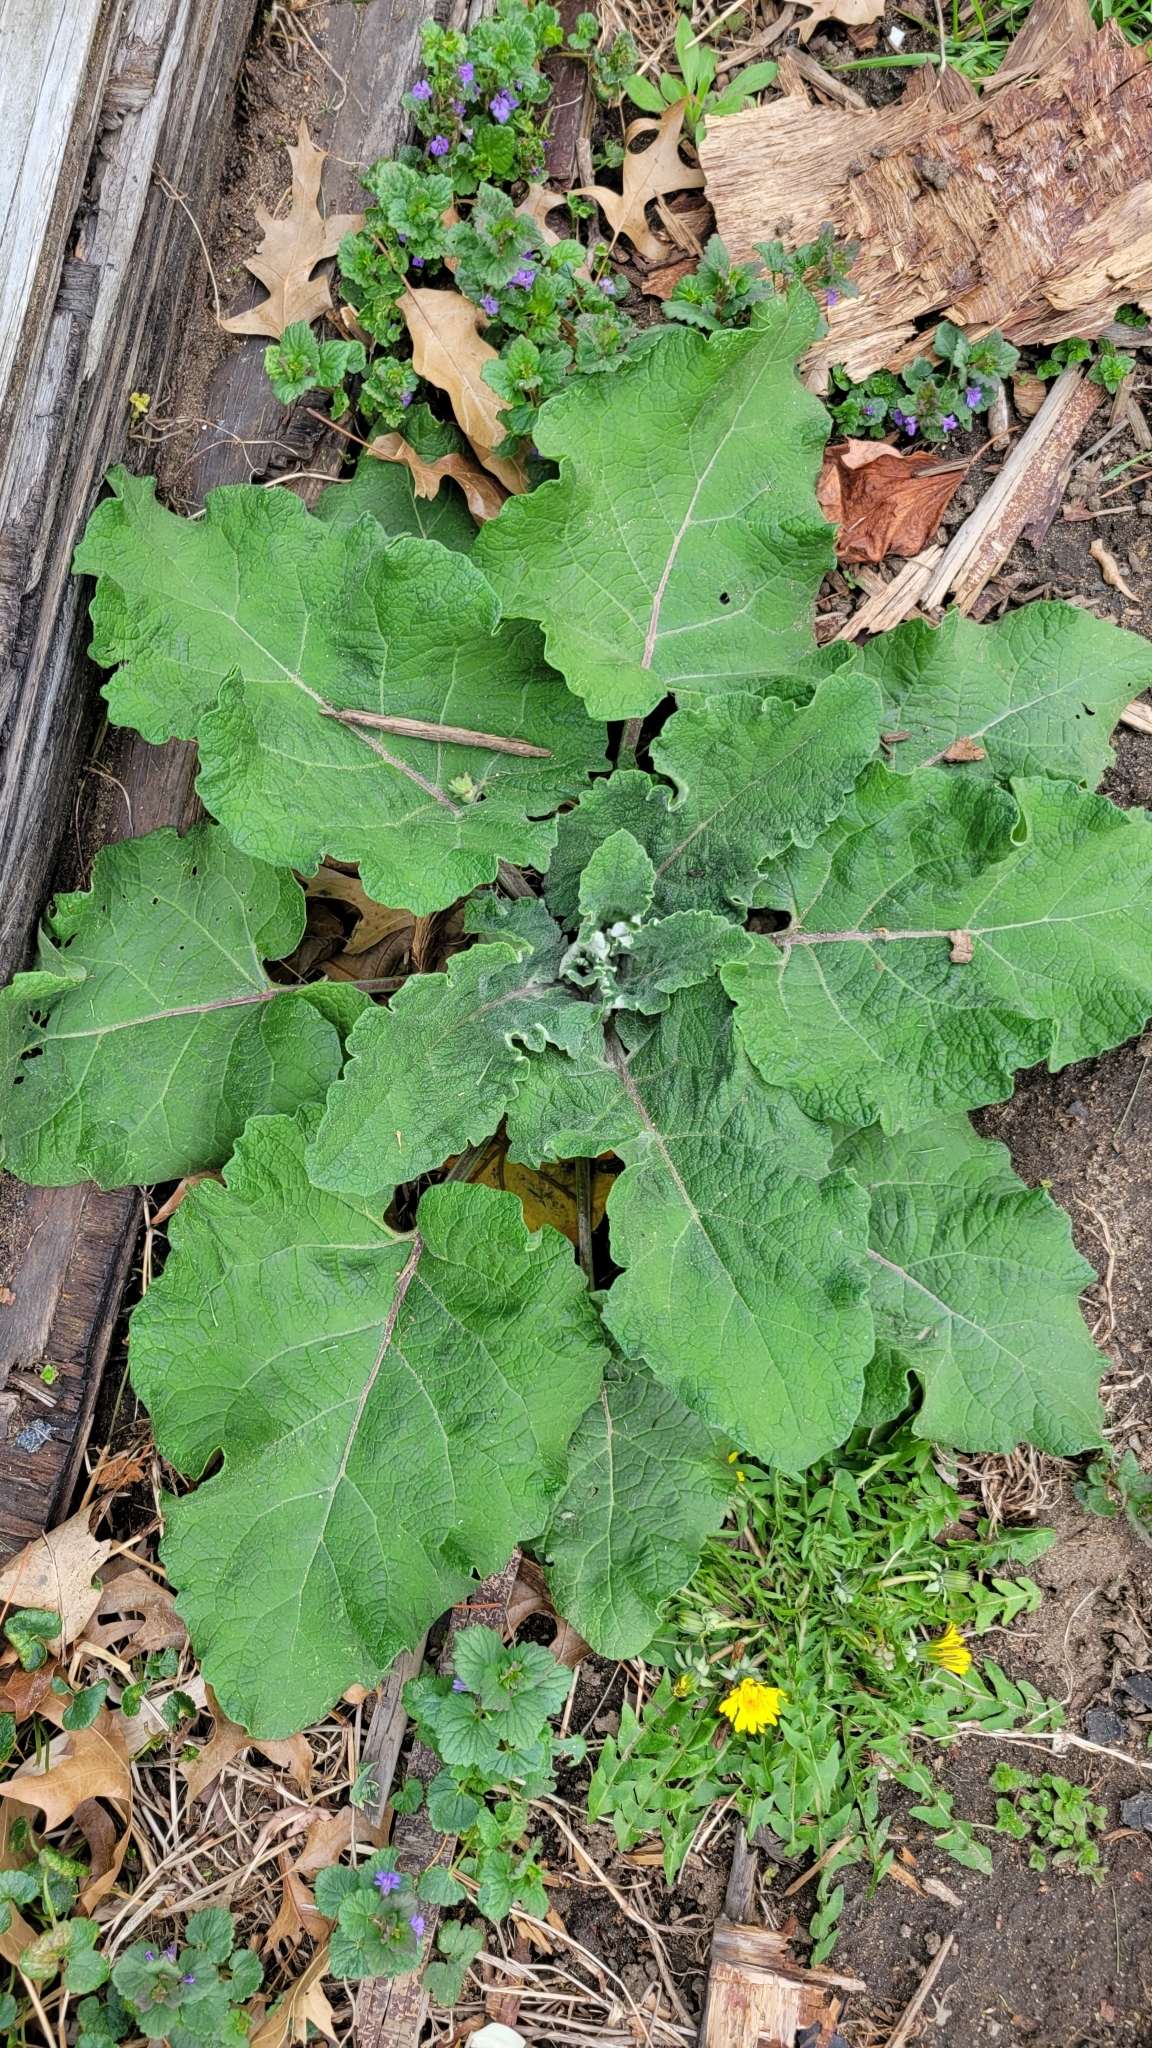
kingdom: Plantae
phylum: Tracheophyta
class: Magnoliopsida
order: Asterales
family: Asteraceae
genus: Arctium
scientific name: Arctium minus
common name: Lesser burdock
